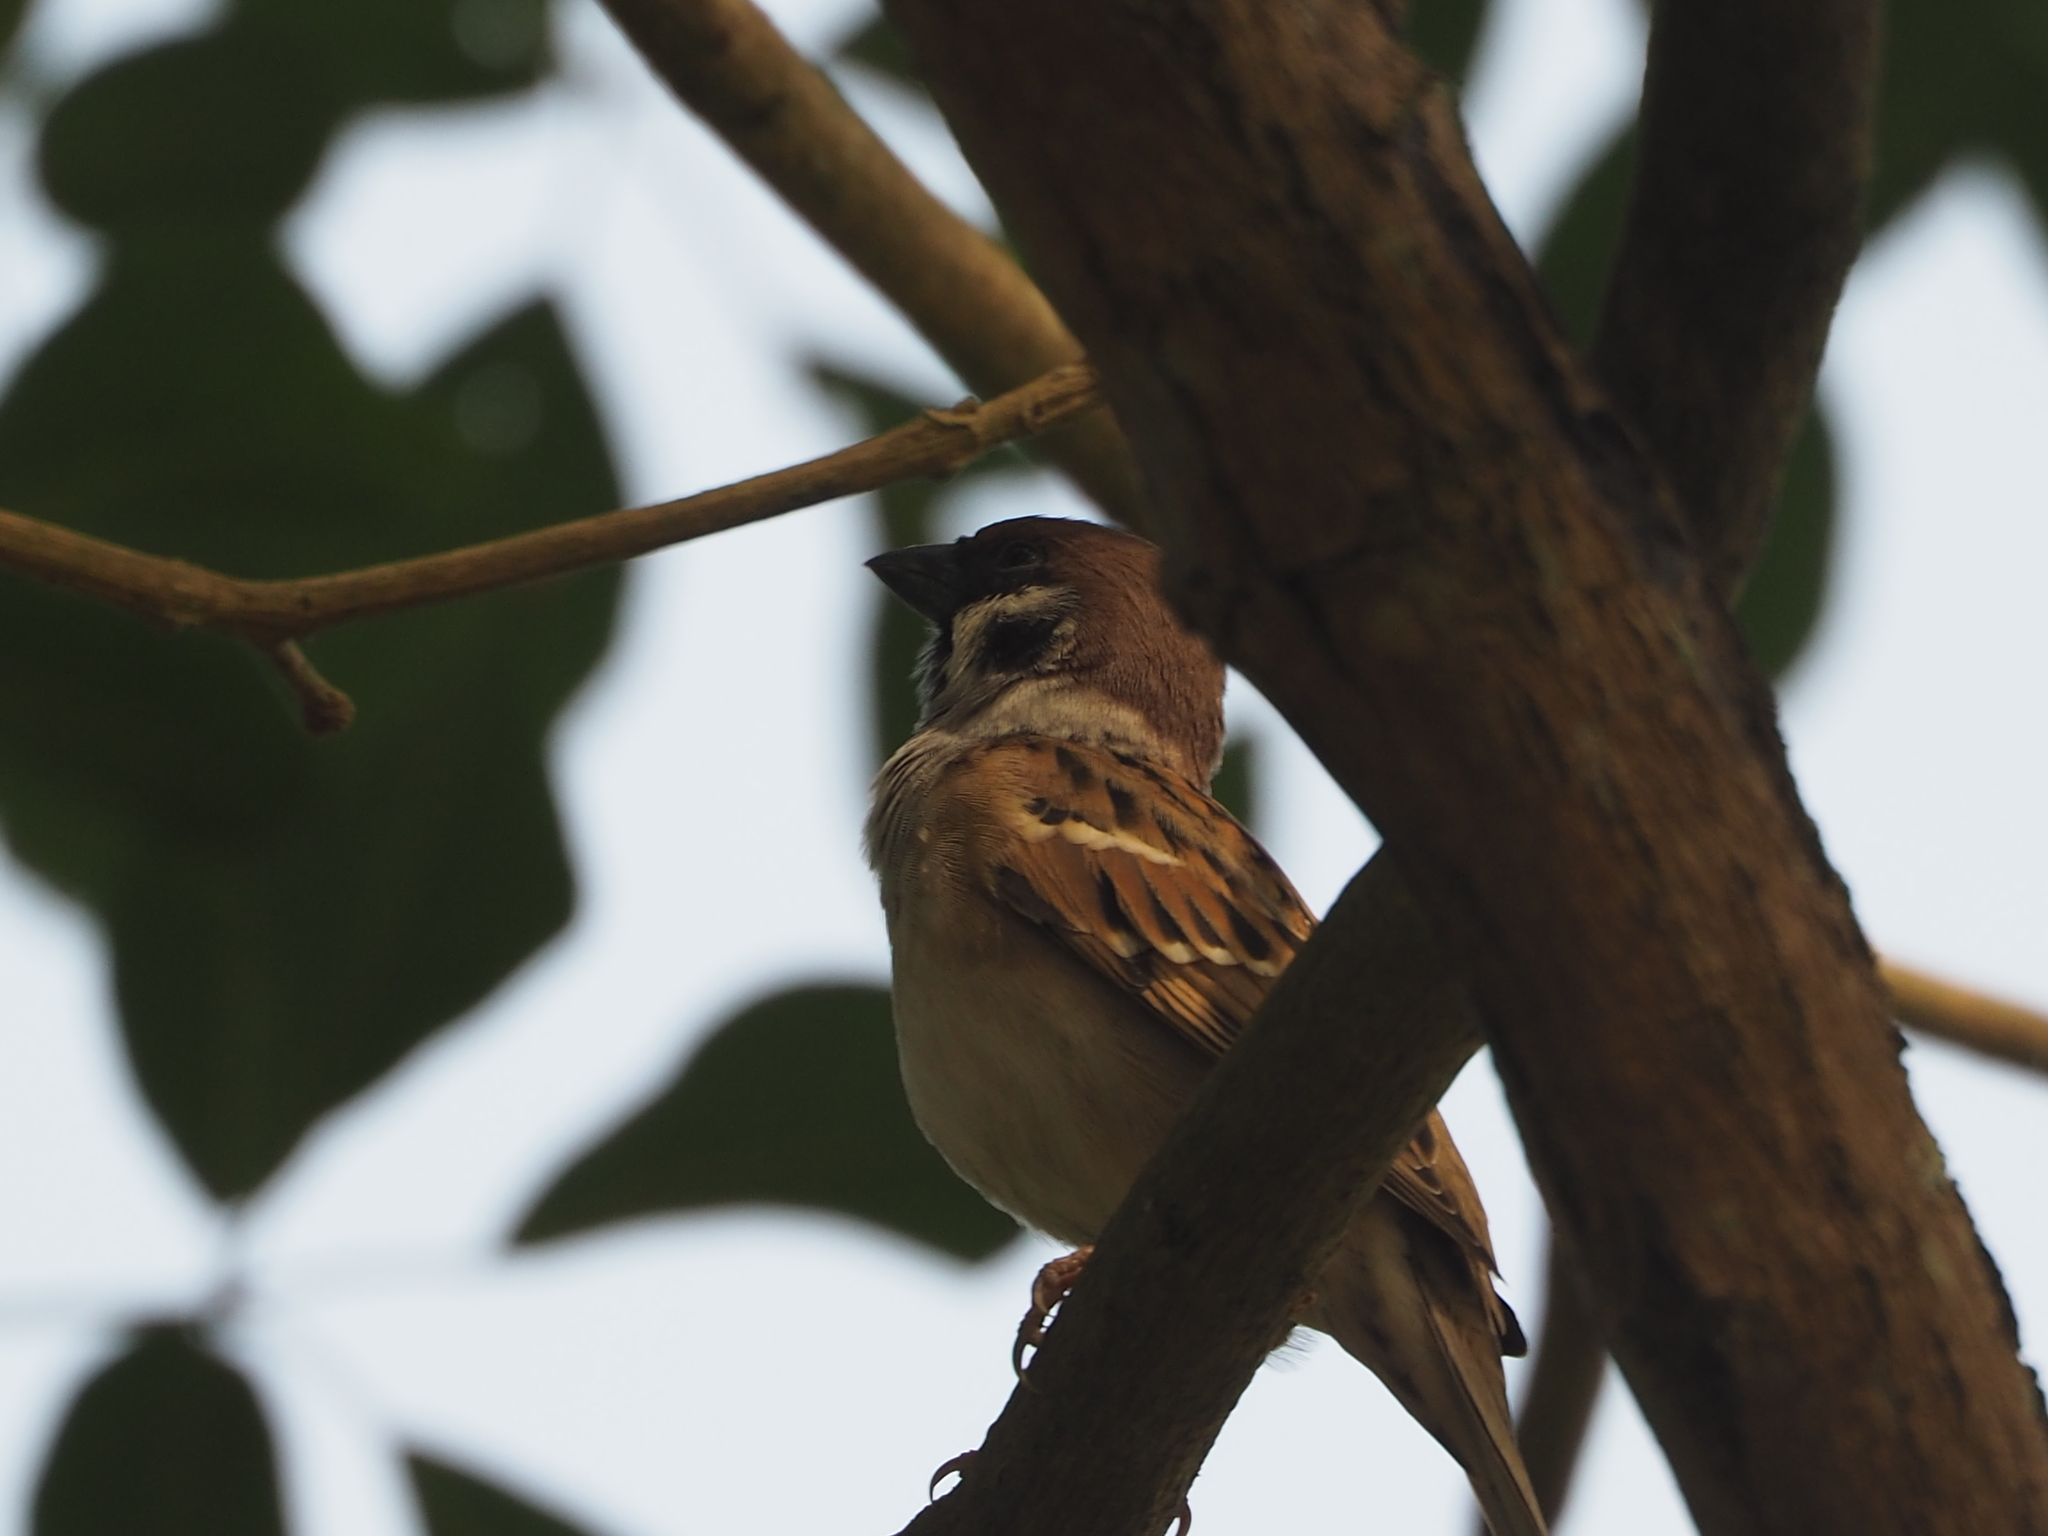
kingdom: Animalia
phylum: Chordata
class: Aves
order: Passeriformes
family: Passeridae
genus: Passer
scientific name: Passer montanus
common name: Eurasian tree sparrow
